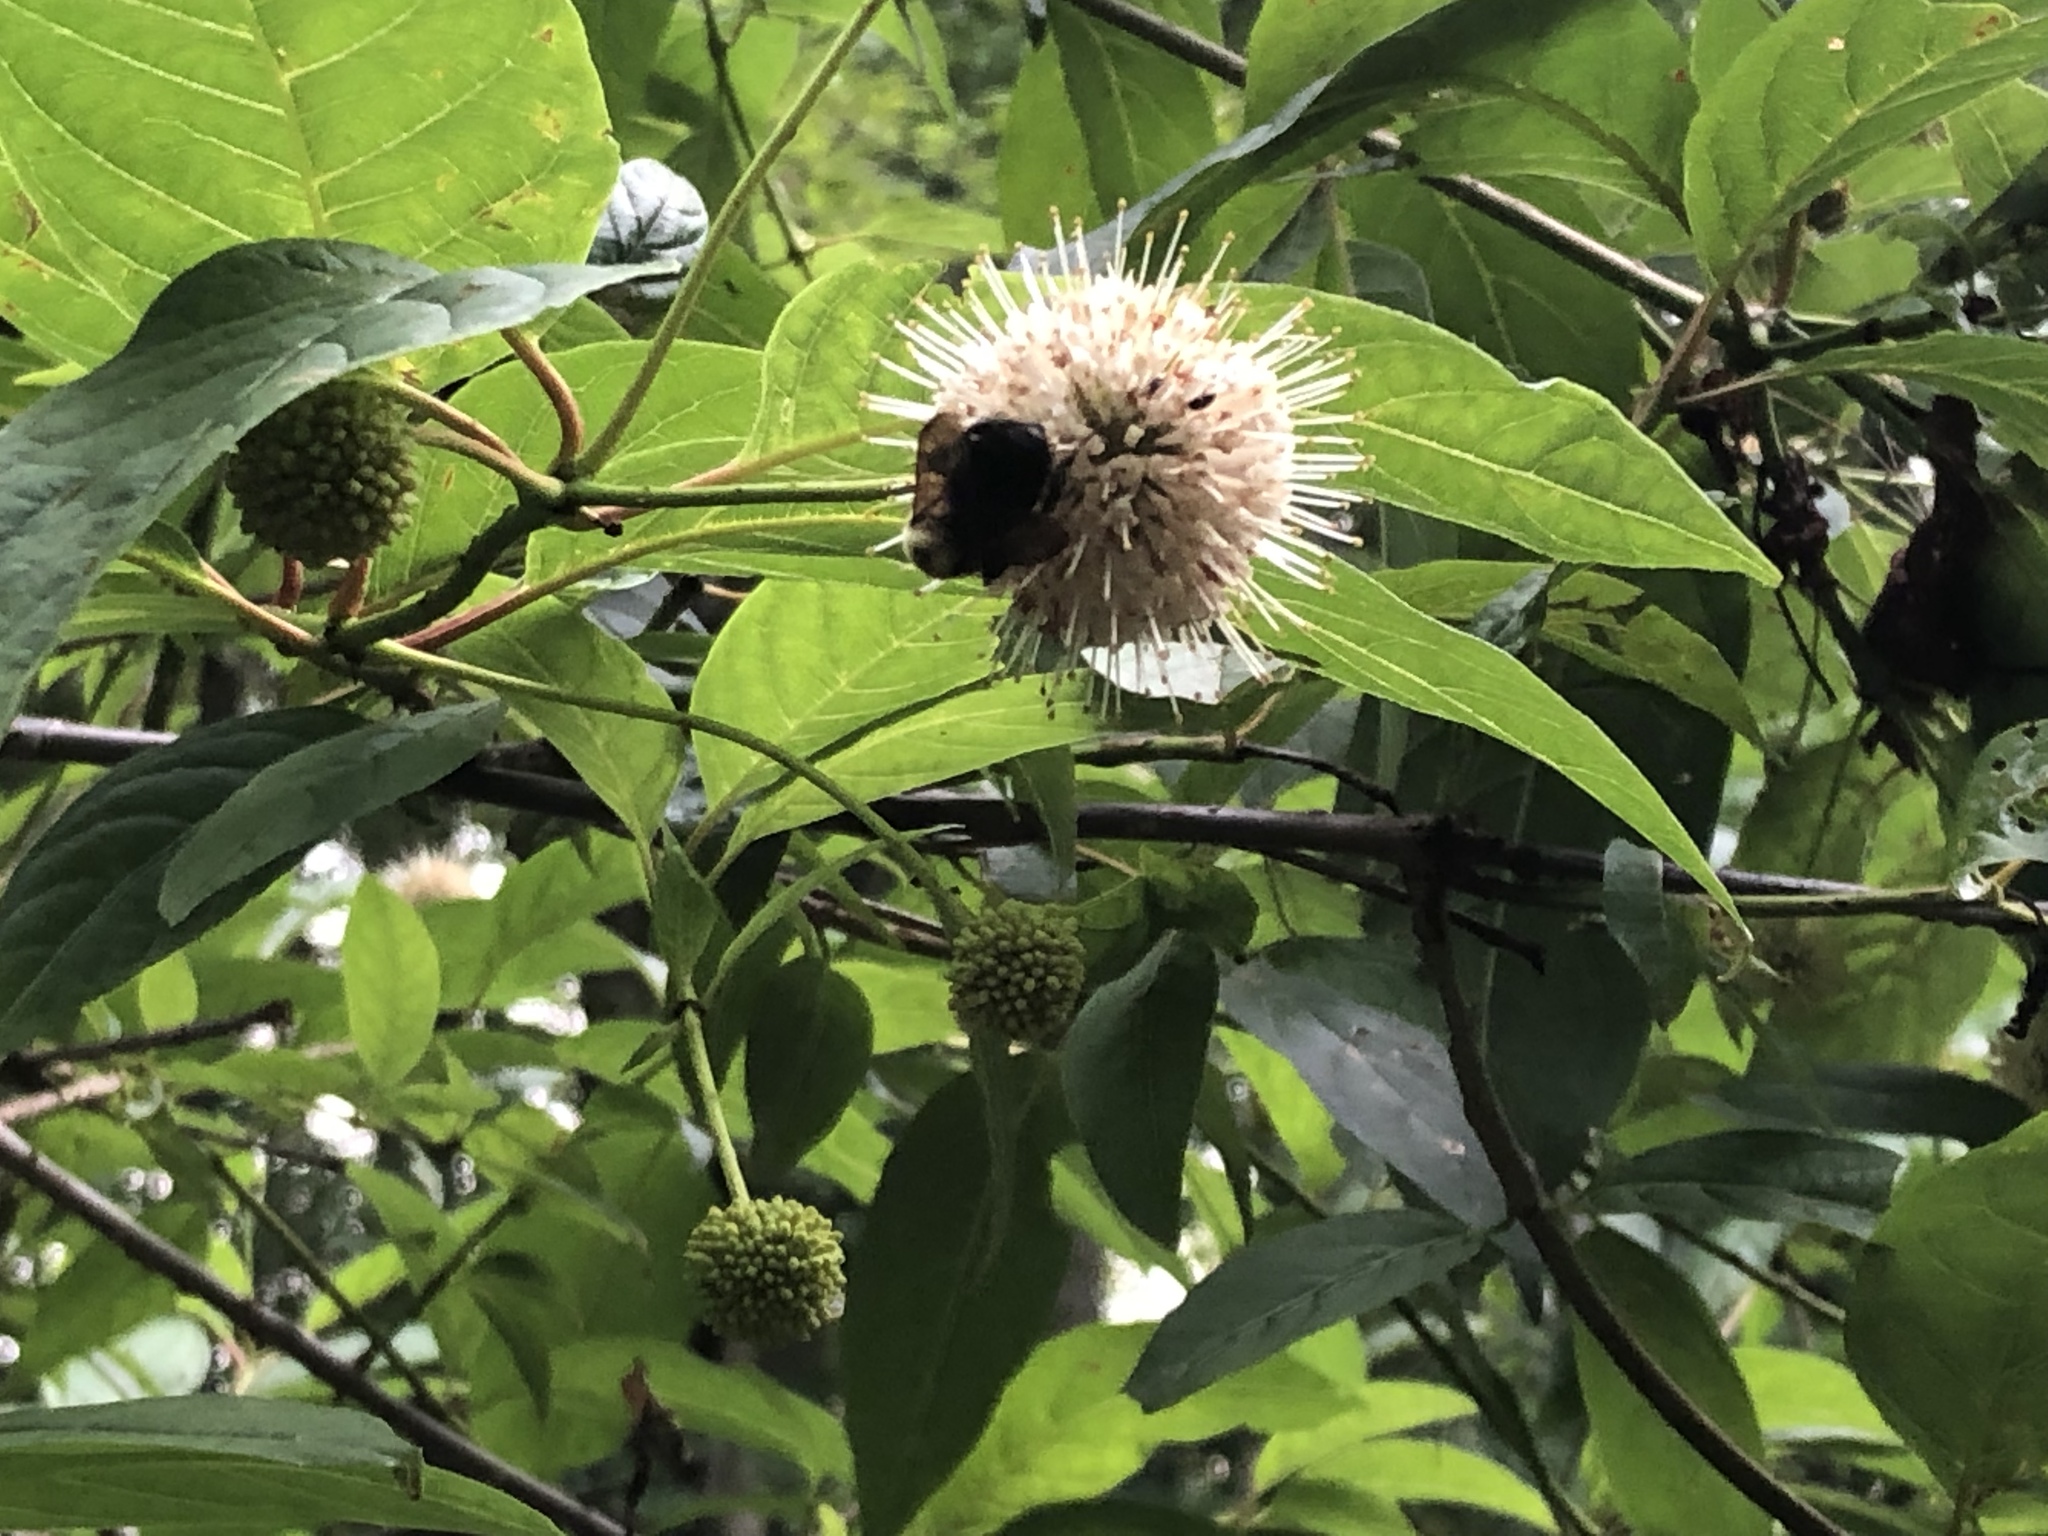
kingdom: Plantae
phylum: Tracheophyta
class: Magnoliopsida
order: Gentianales
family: Rubiaceae
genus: Cephalanthus
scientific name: Cephalanthus occidentalis
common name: Button-willow
